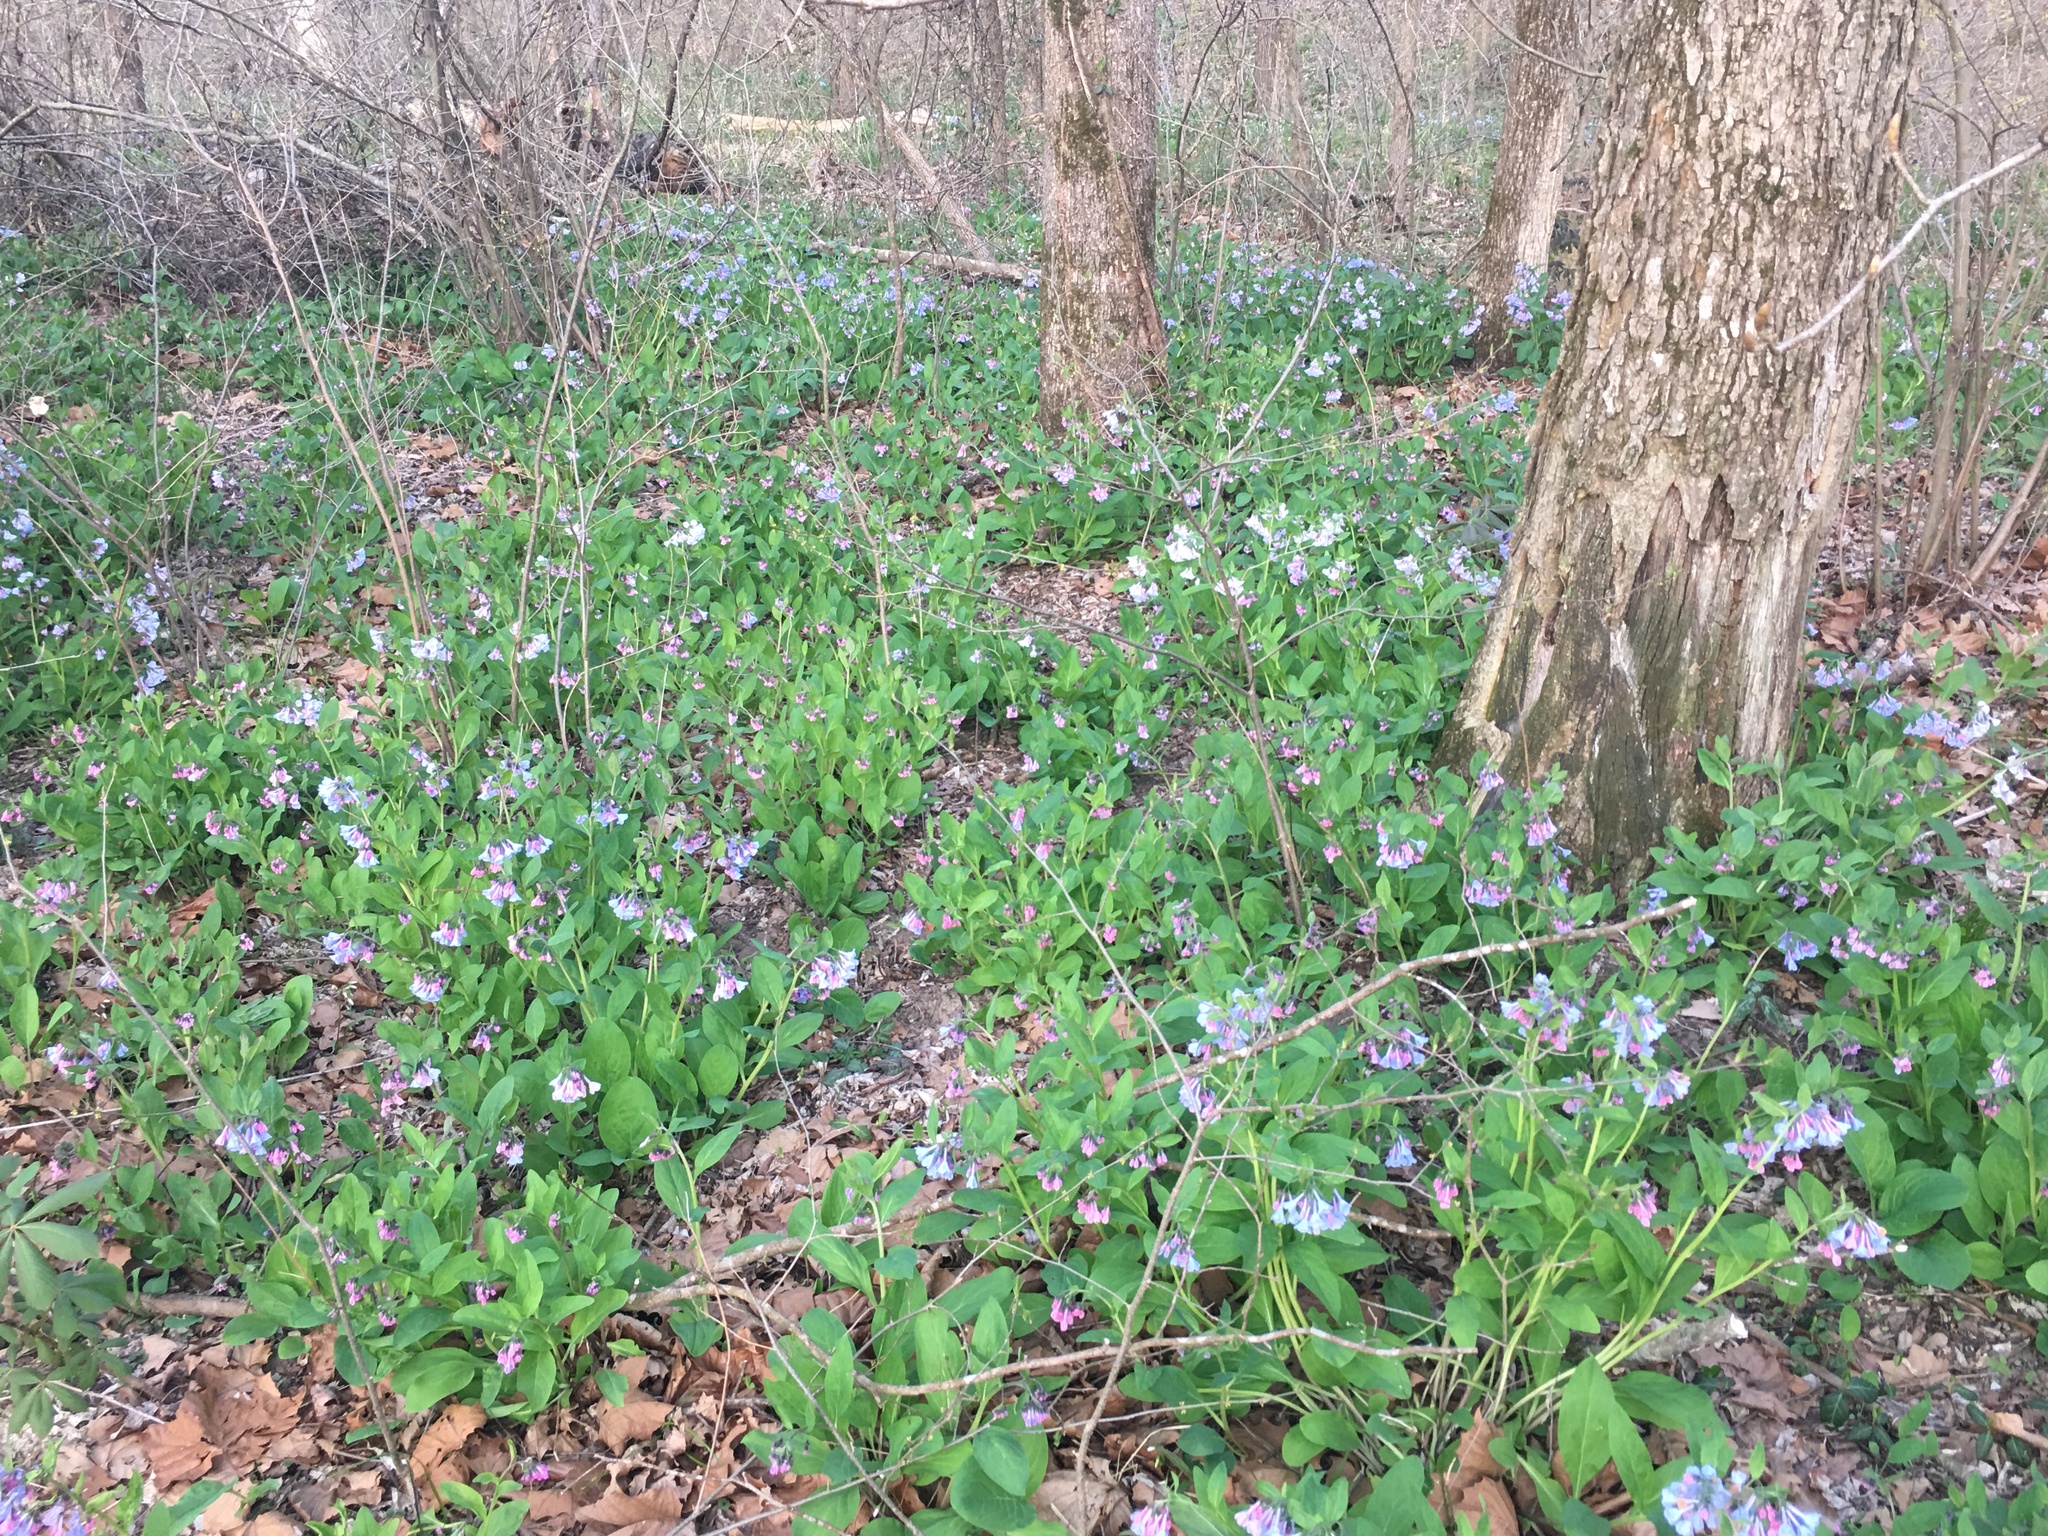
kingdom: Plantae
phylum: Tracheophyta
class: Magnoliopsida
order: Boraginales
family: Boraginaceae
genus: Mertensia
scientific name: Mertensia virginica
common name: Virginia bluebells
